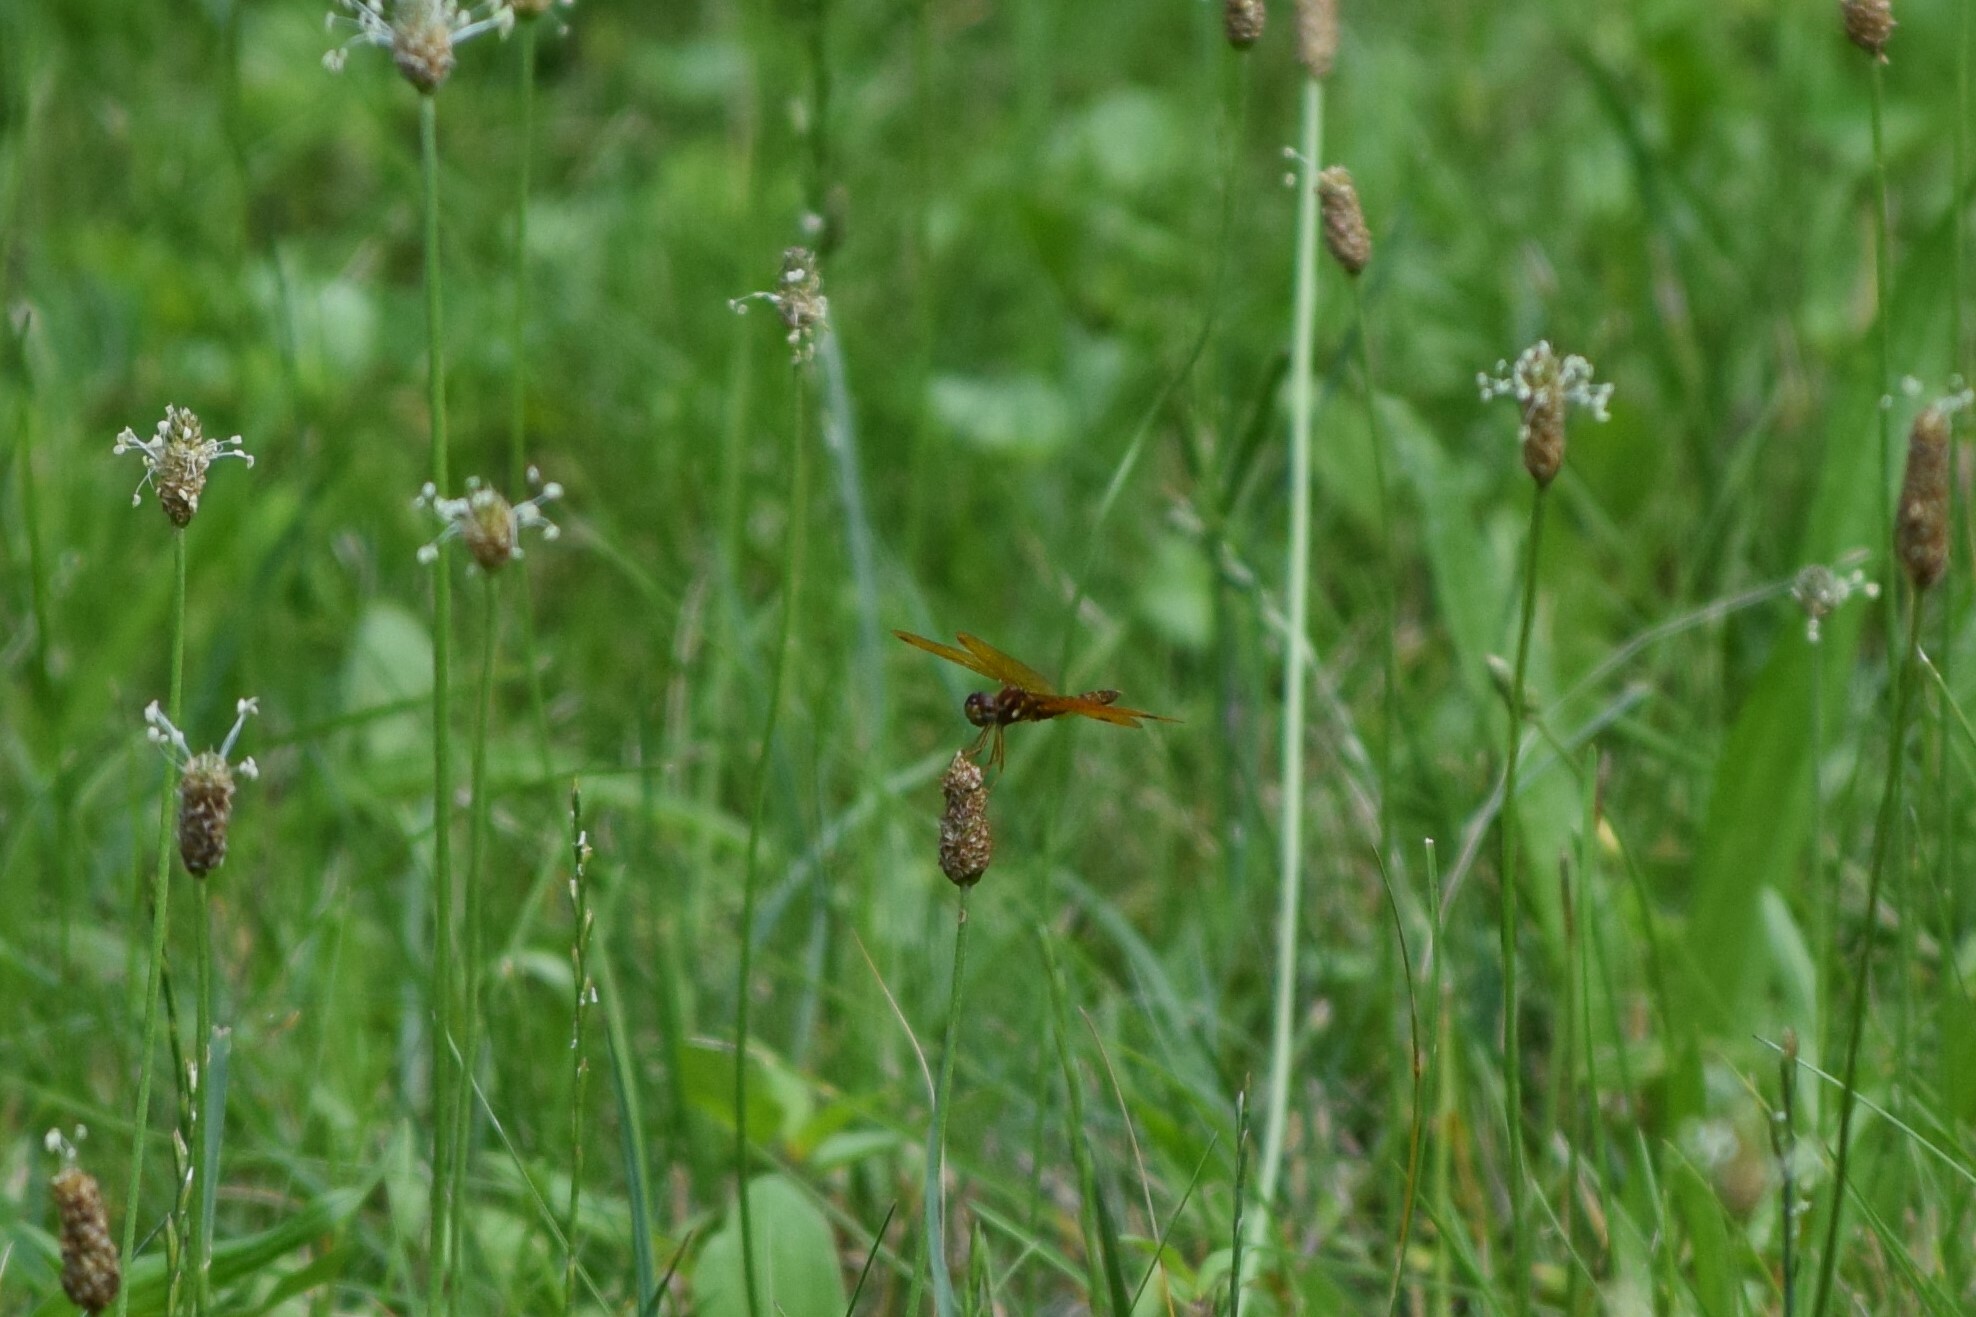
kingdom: Animalia
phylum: Arthropoda
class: Insecta
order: Odonata
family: Libellulidae
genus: Perithemis
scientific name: Perithemis tenera
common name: Eastern amberwing
